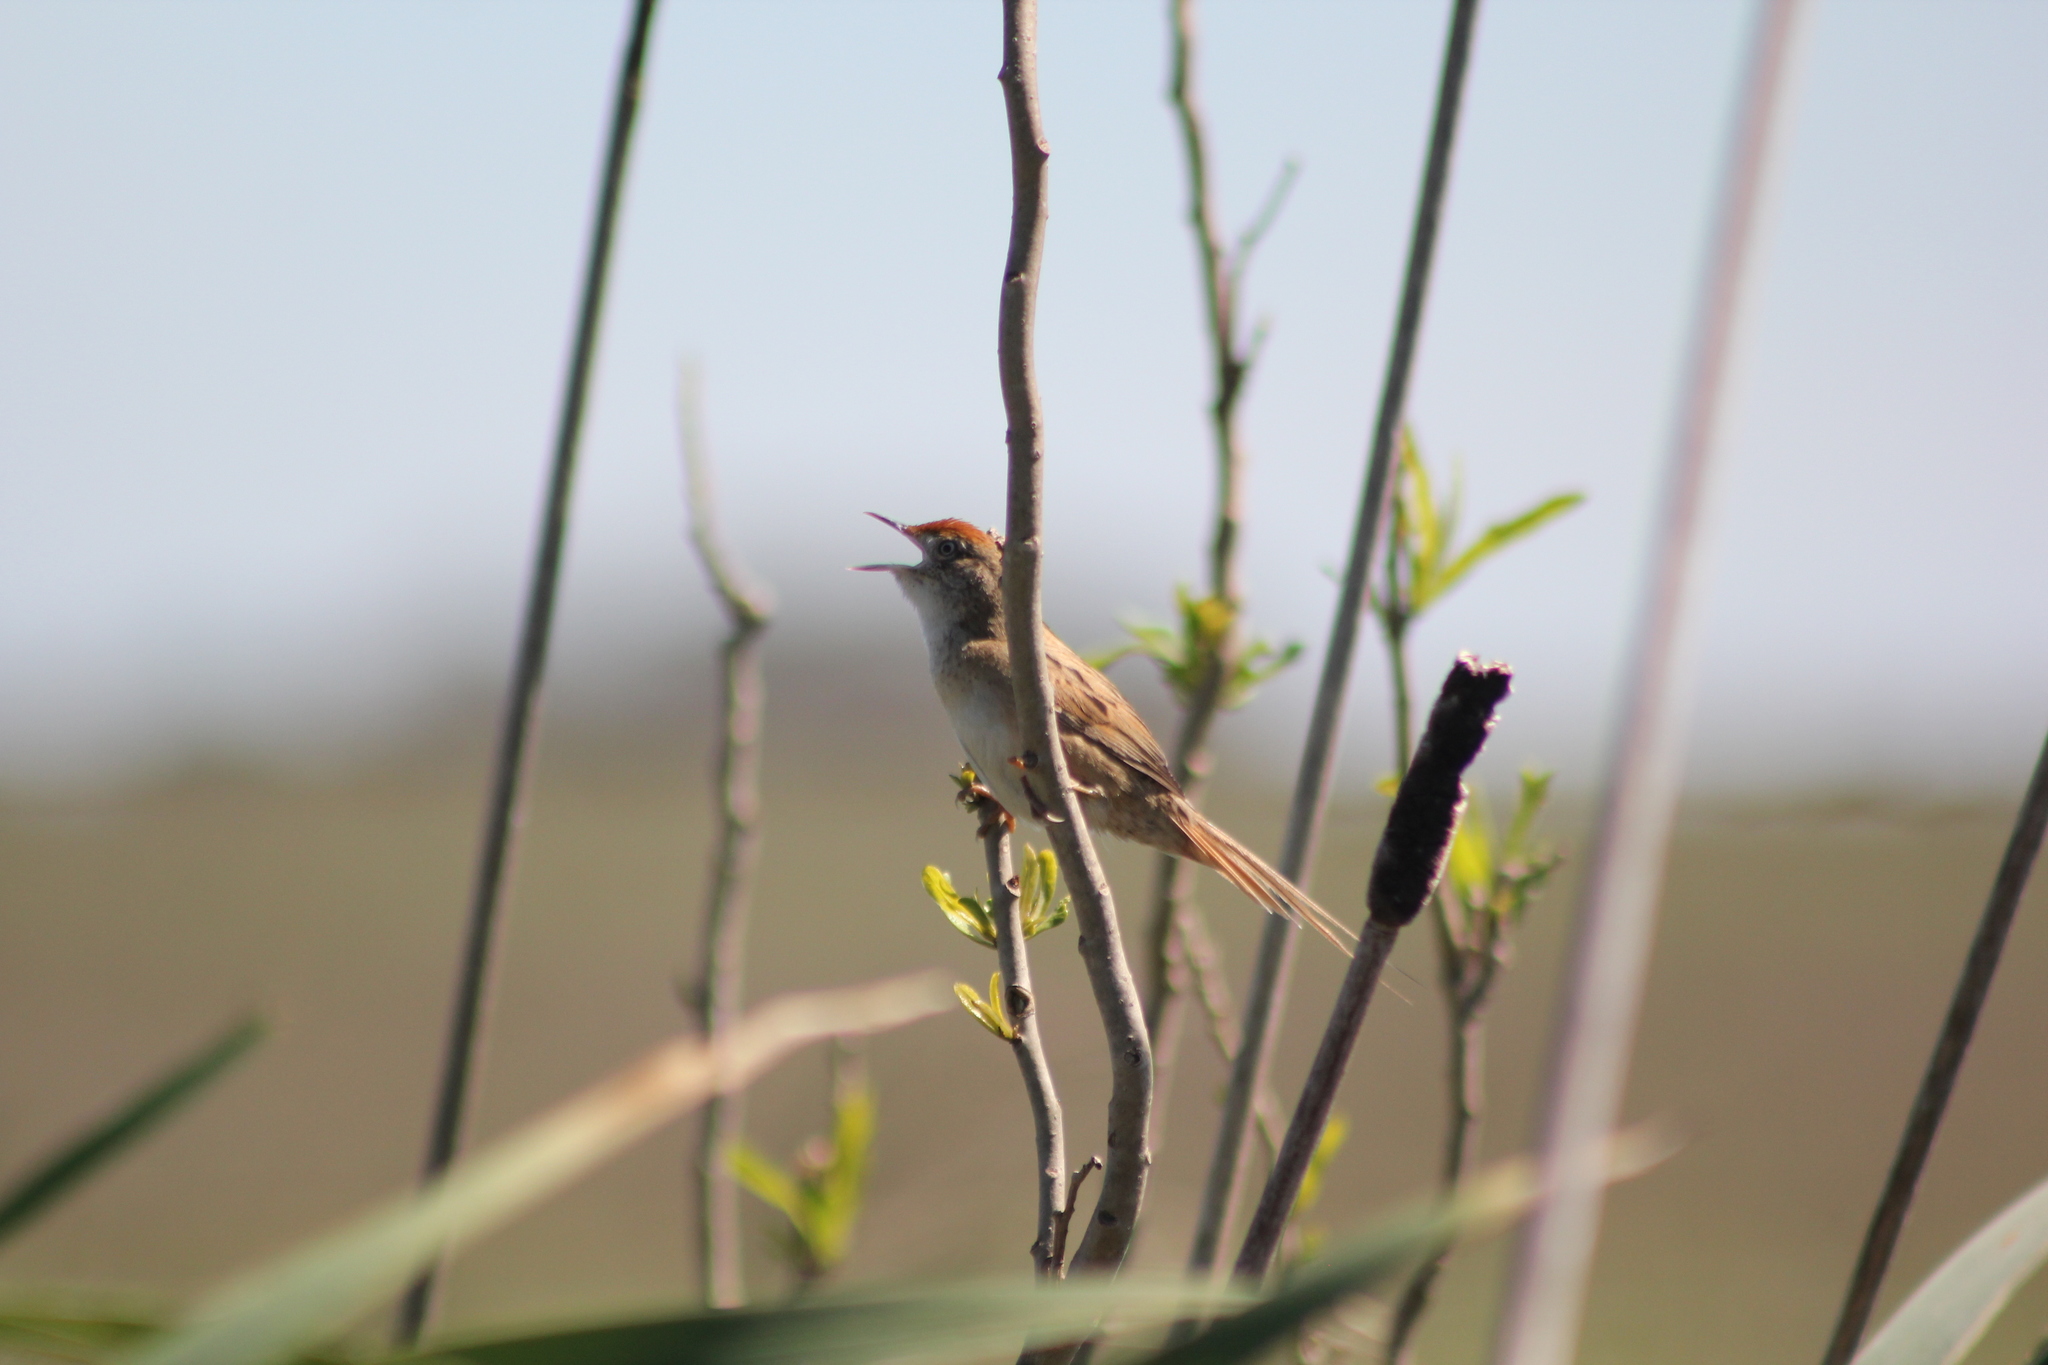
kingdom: Animalia
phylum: Chordata
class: Aves
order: Passeriformes
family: Furnariidae
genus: Spartonoica
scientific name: Spartonoica maluroides
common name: Bay-capped wren-spinetail
